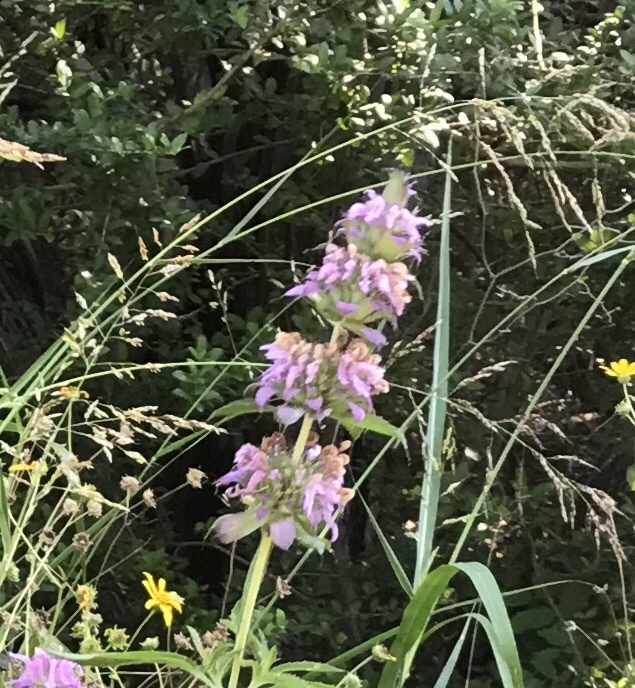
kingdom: Plantae
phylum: Tracheophyta
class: Magnoliopsida
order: Lamiales
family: Lamiaceae
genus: Monarda
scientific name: Monarda citriodora
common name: Lemon beebalm
